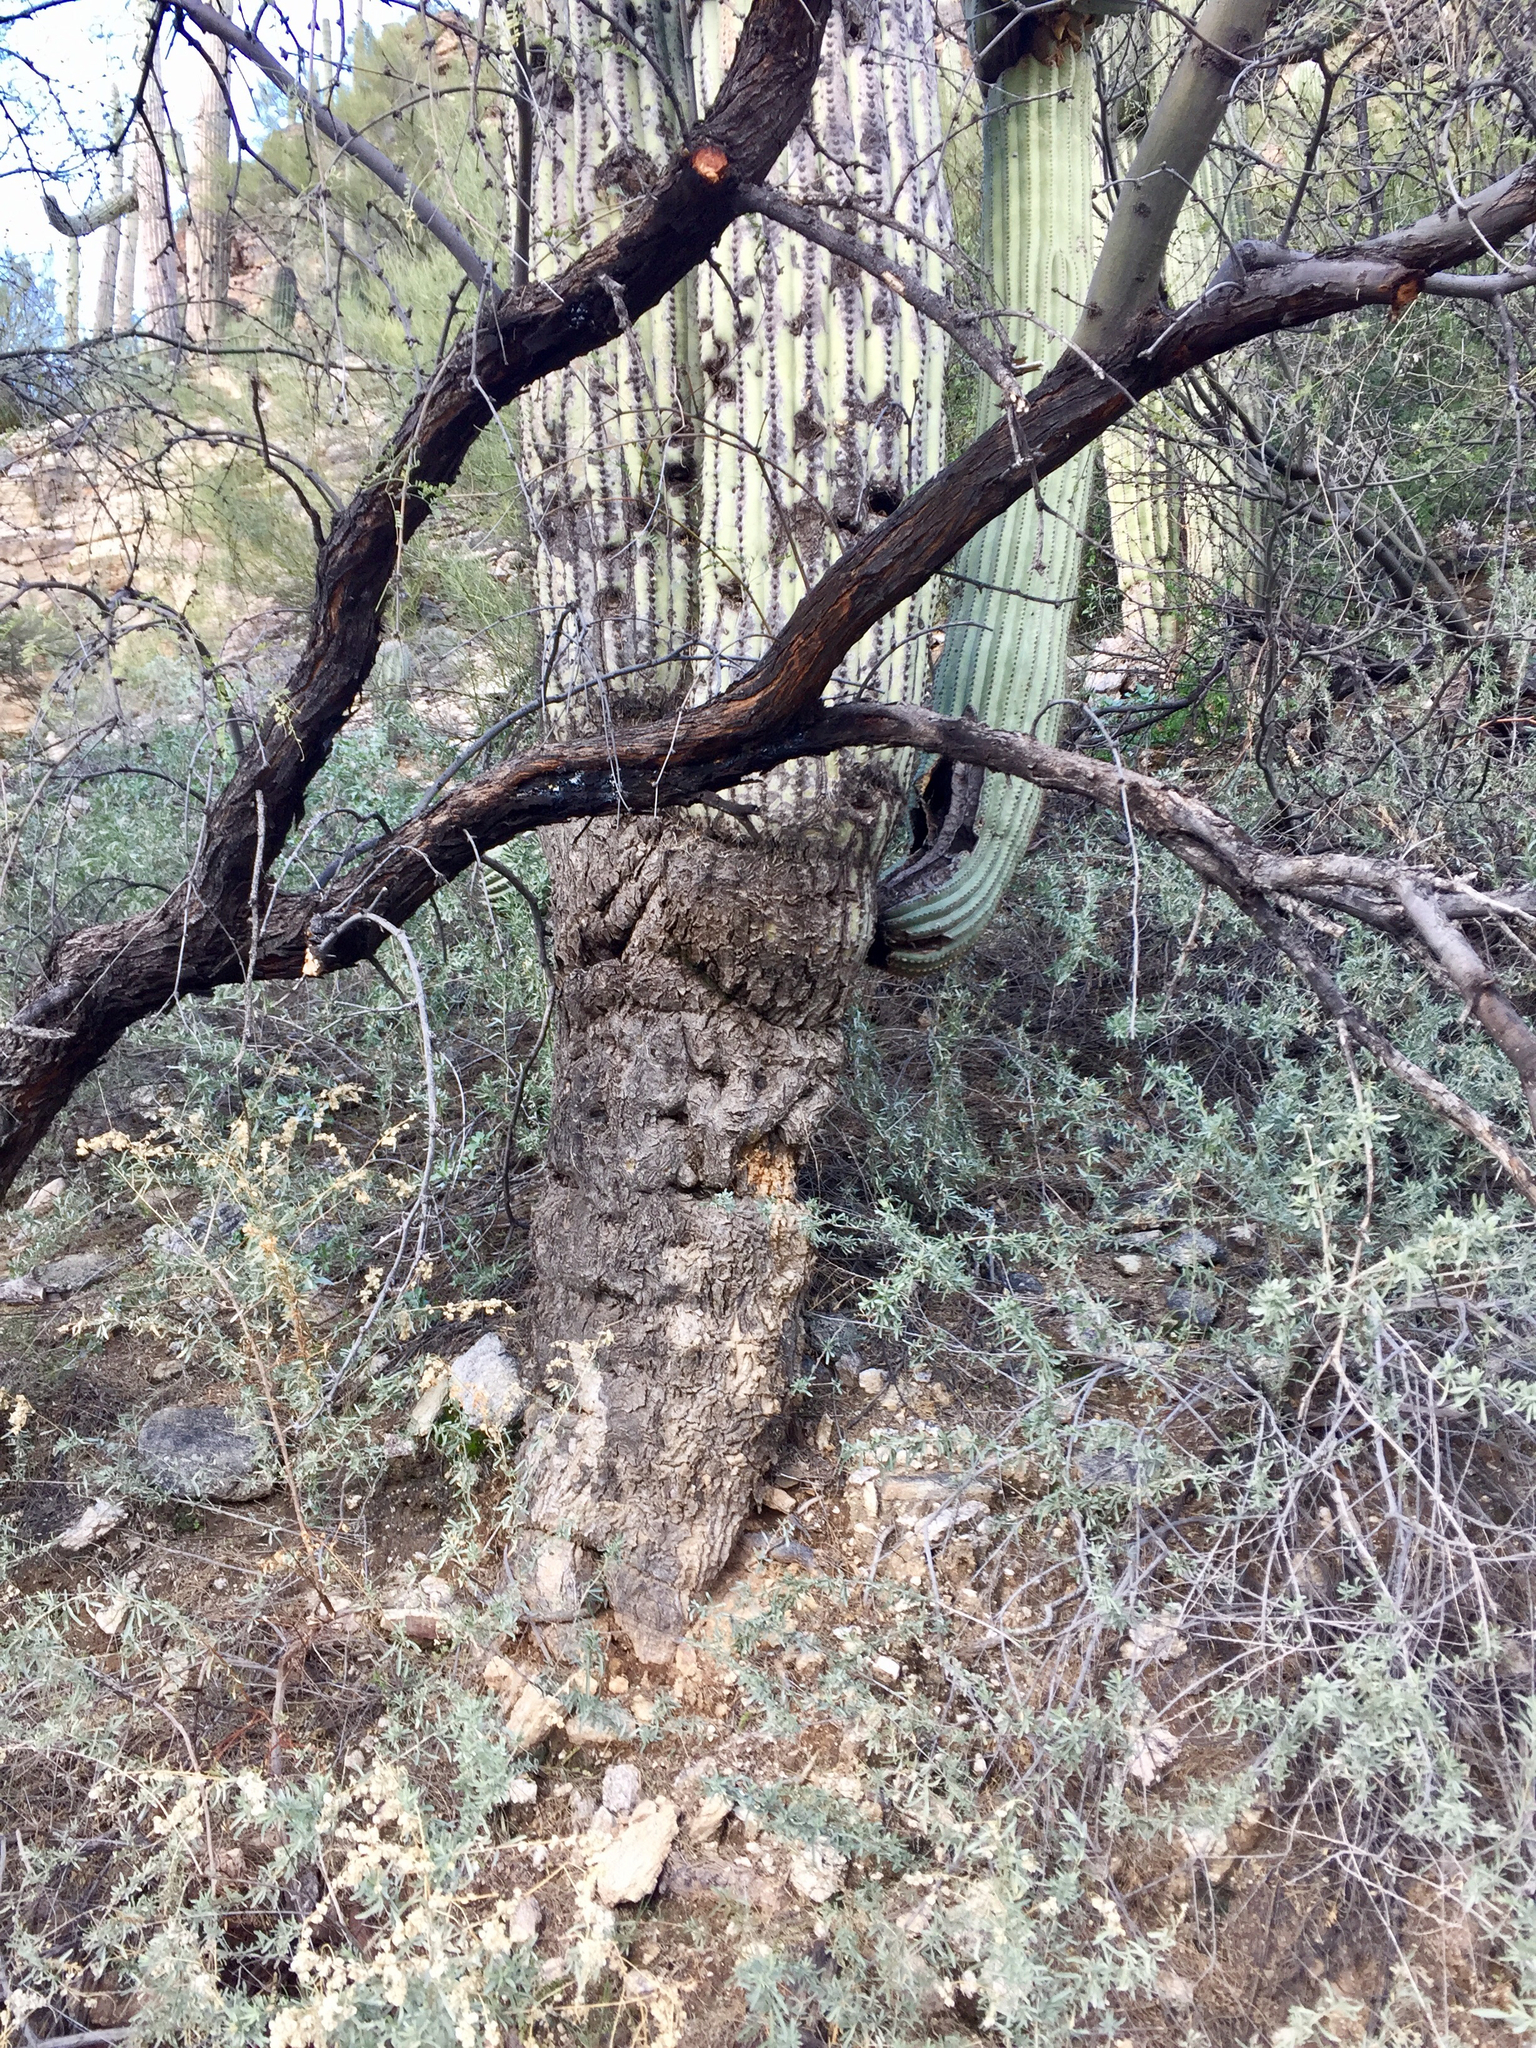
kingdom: Plantae
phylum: Tracheophyta
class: Magnoliopsida
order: Caryophyllales
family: Cactaceae
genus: Carnegiea
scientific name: Carnegiea gigantea
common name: Saguaro
